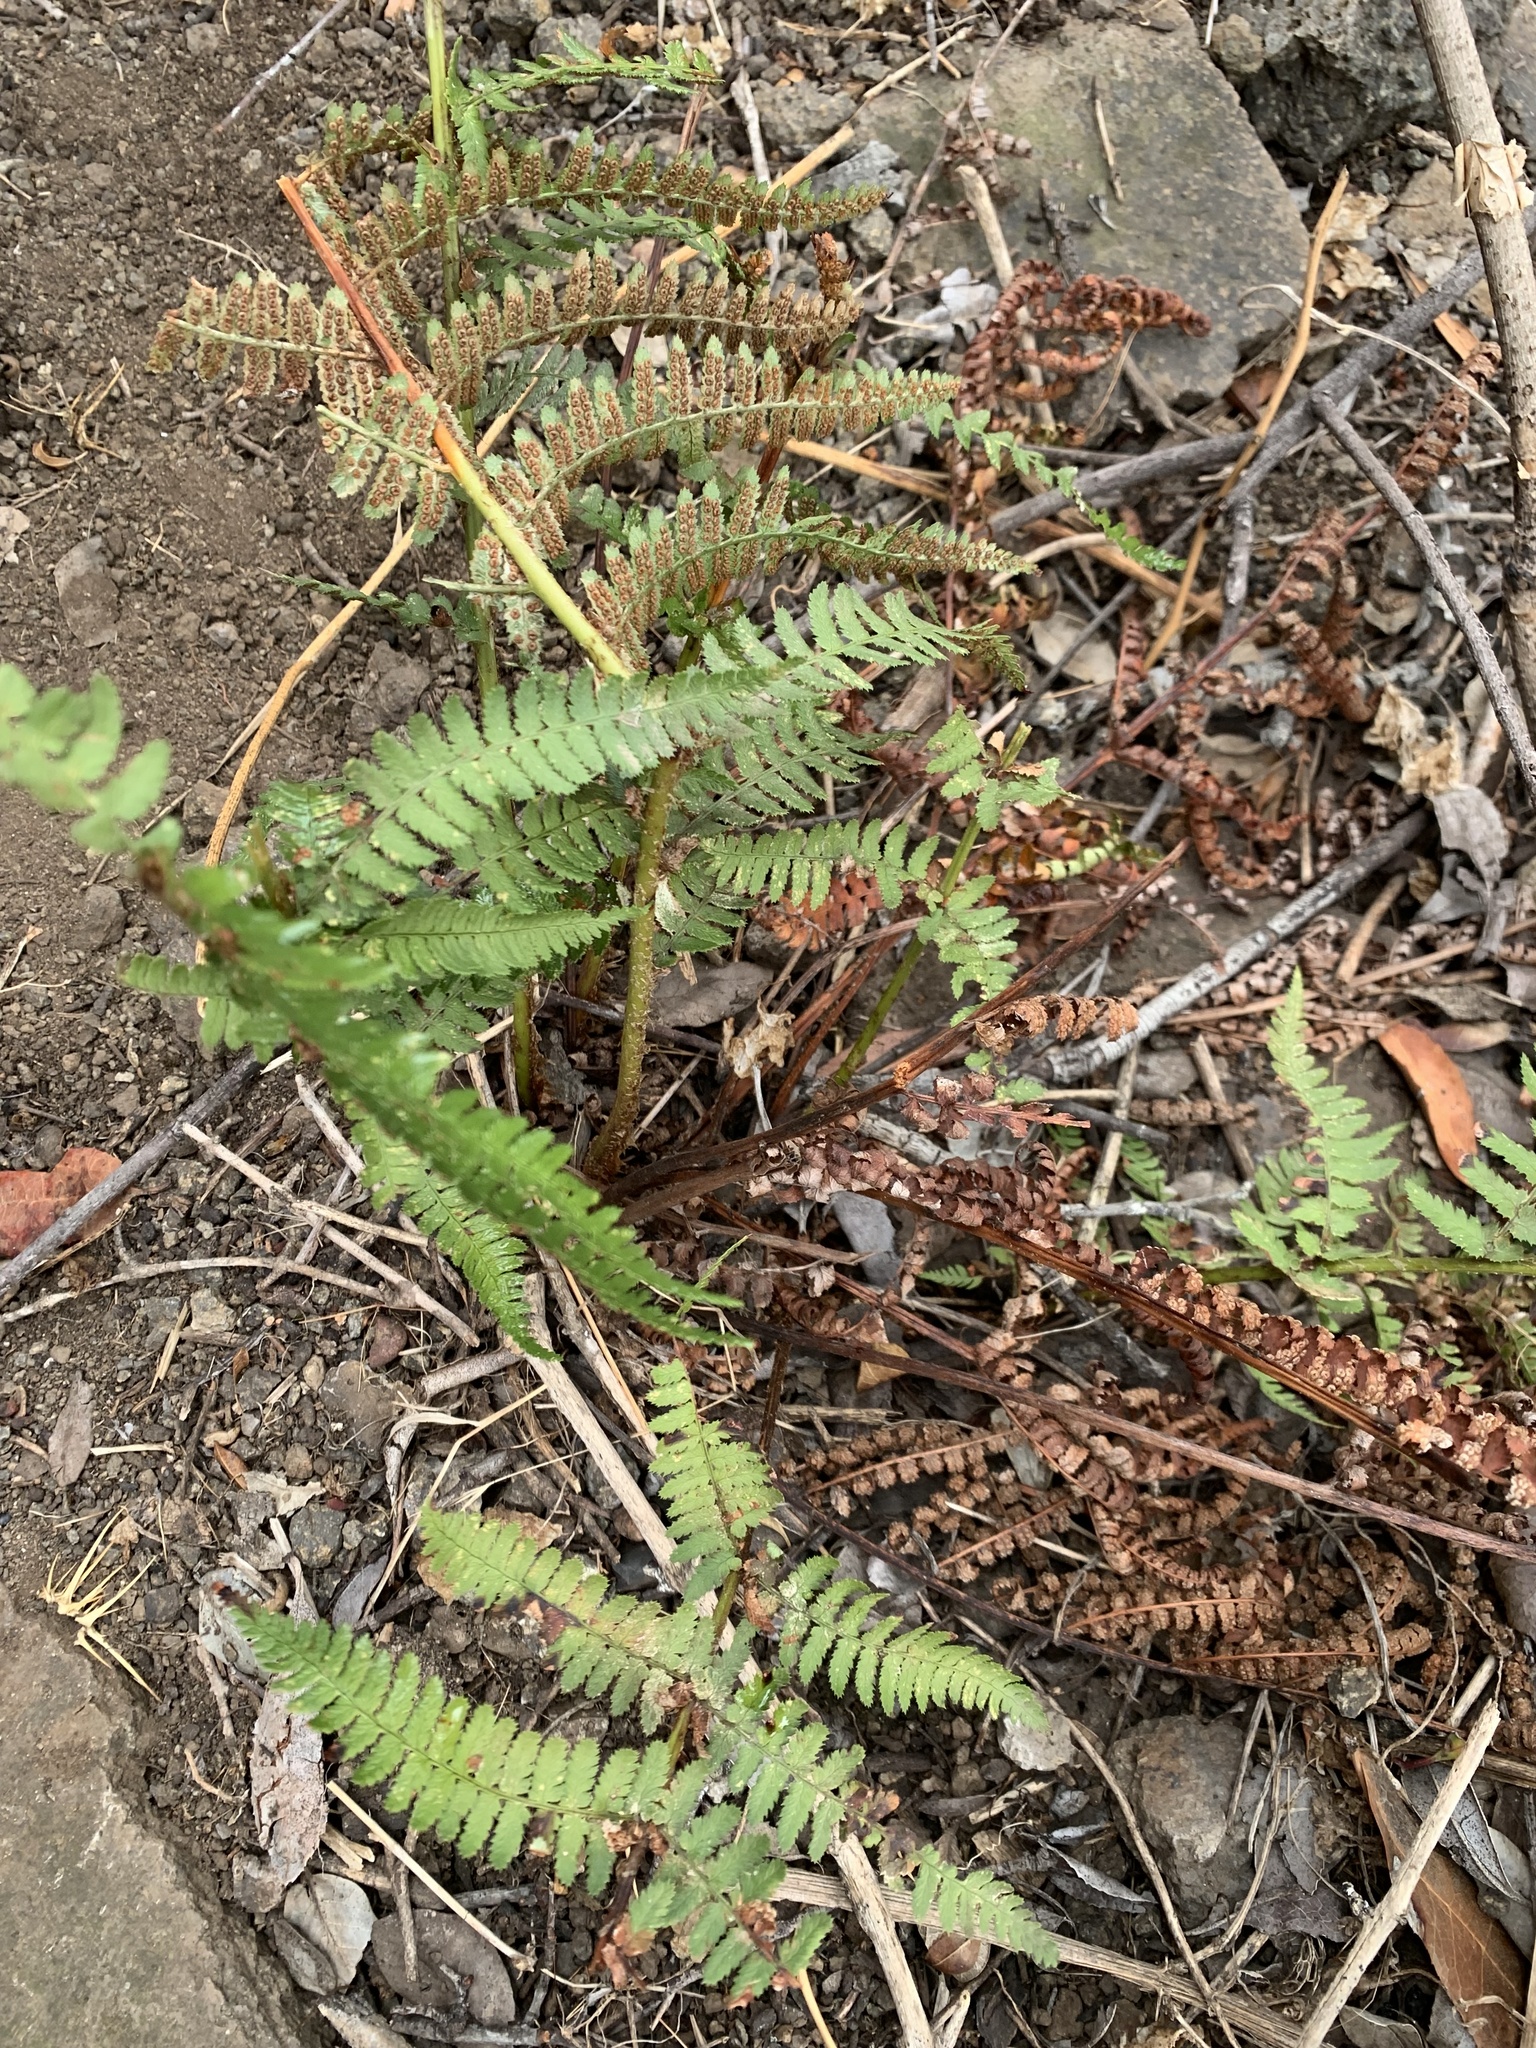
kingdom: Plantae
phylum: Tracheophyta
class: Polypodiopsida
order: Polypodiales
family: Dryopteridaceae
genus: Dryopteris
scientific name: Dryopteris arguta
